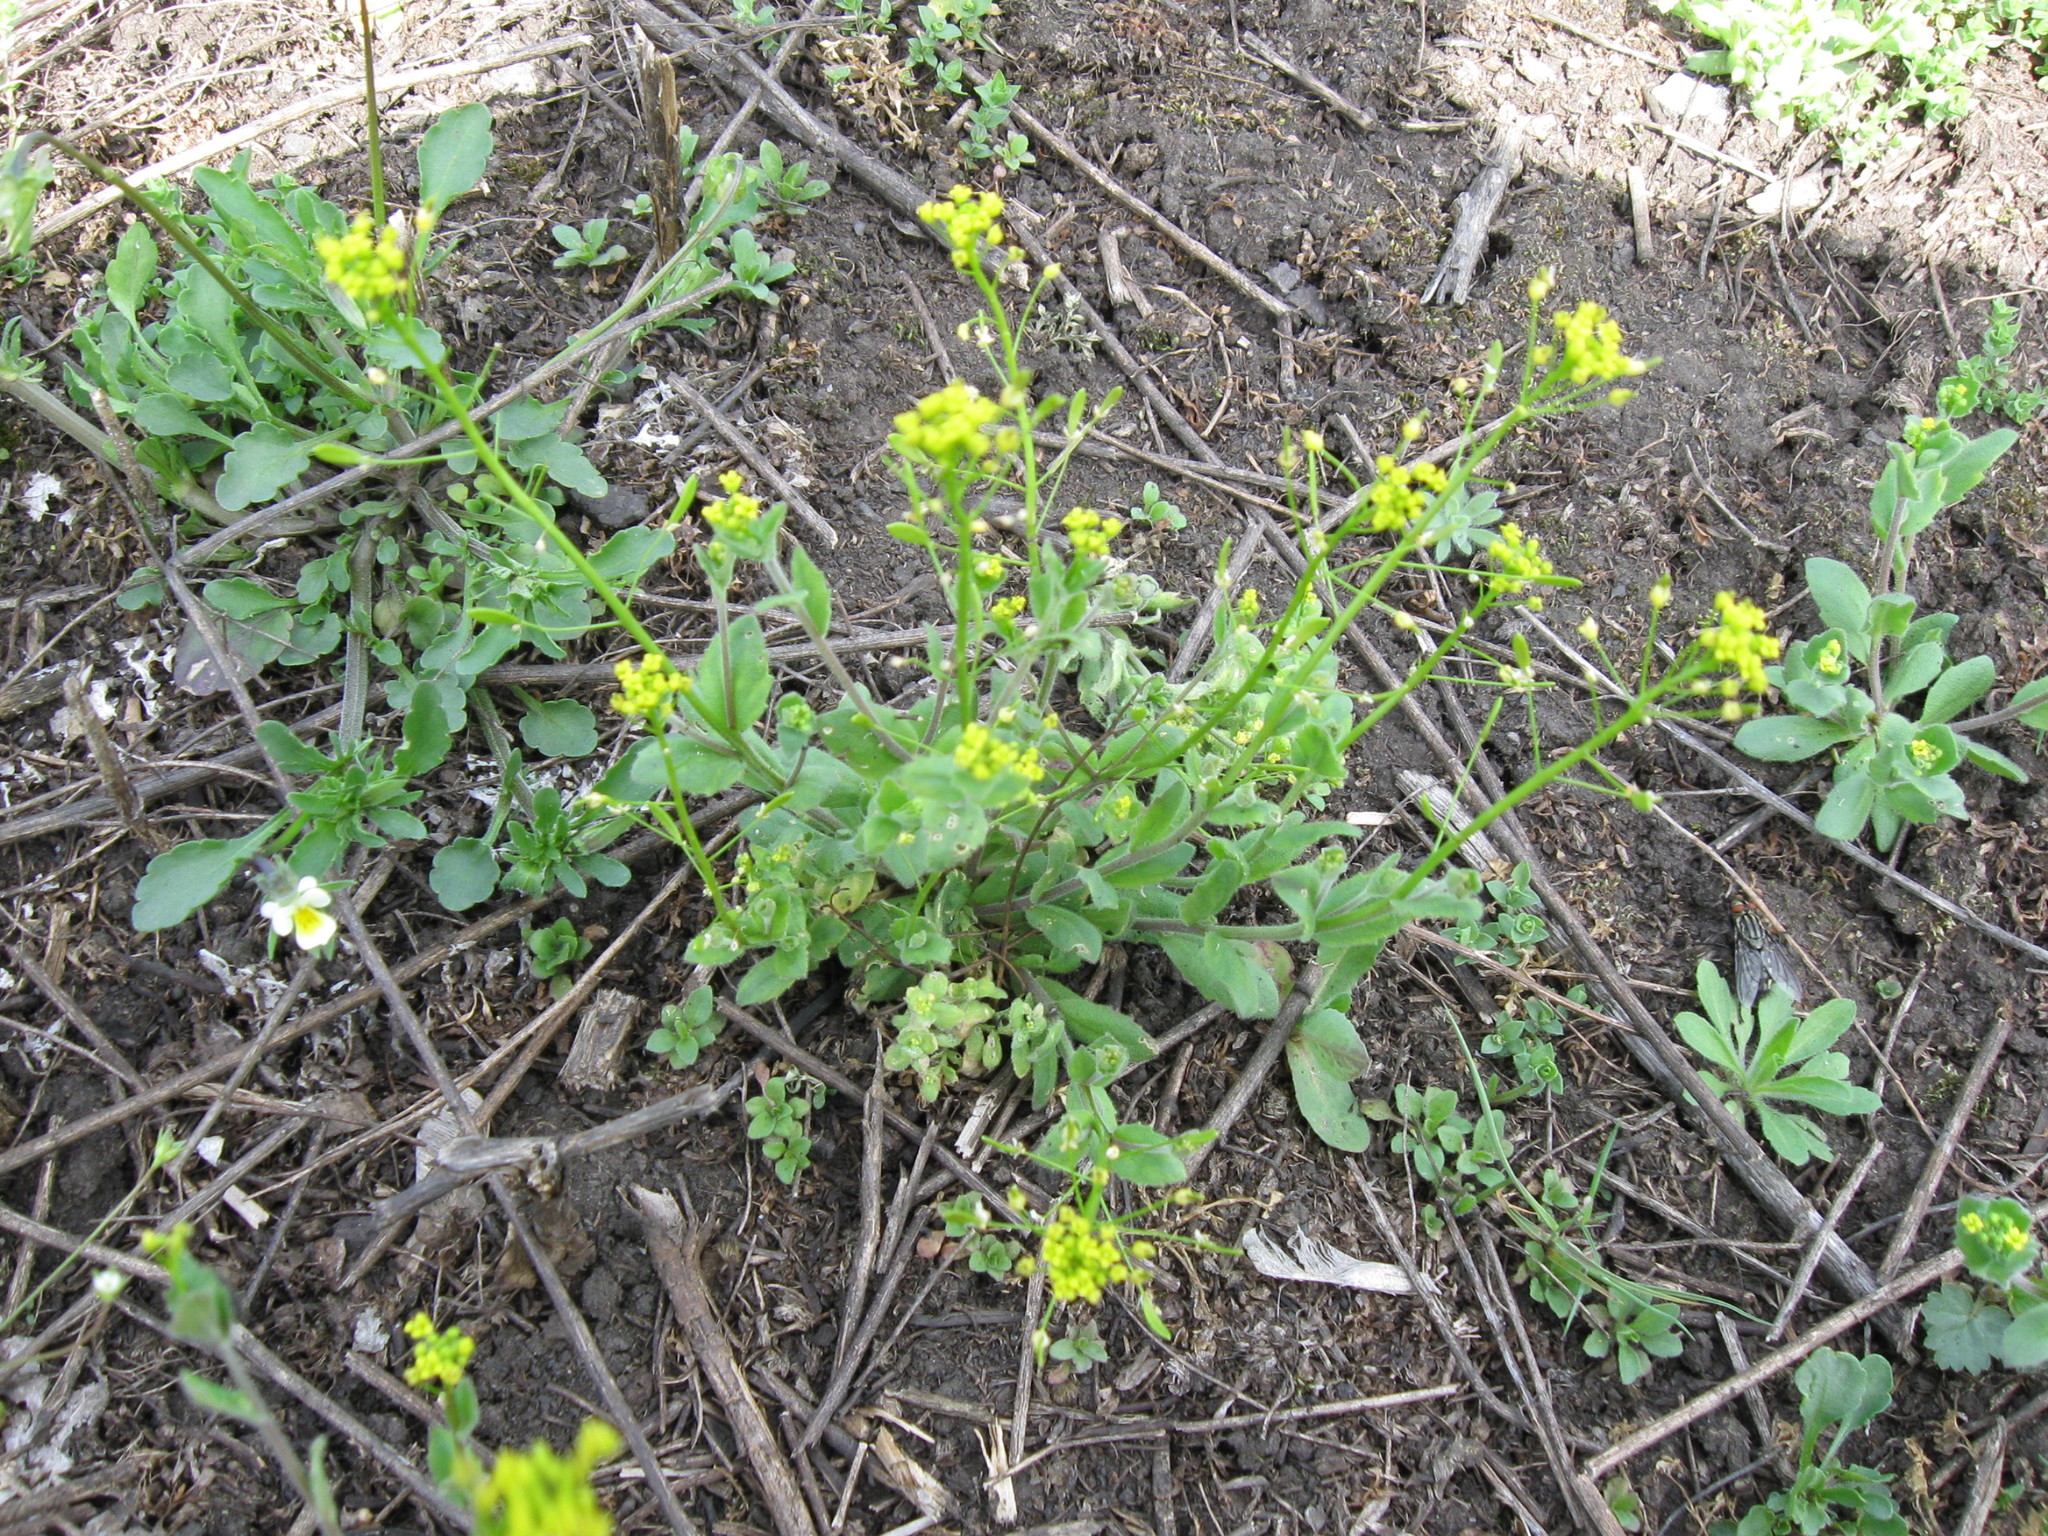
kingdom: Plantae
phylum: Tracheophyta
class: Magnoliopsida
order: Brassicales
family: Brassicaceae
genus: Draba
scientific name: Draba nemorosa
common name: Wood whitlow-grass
